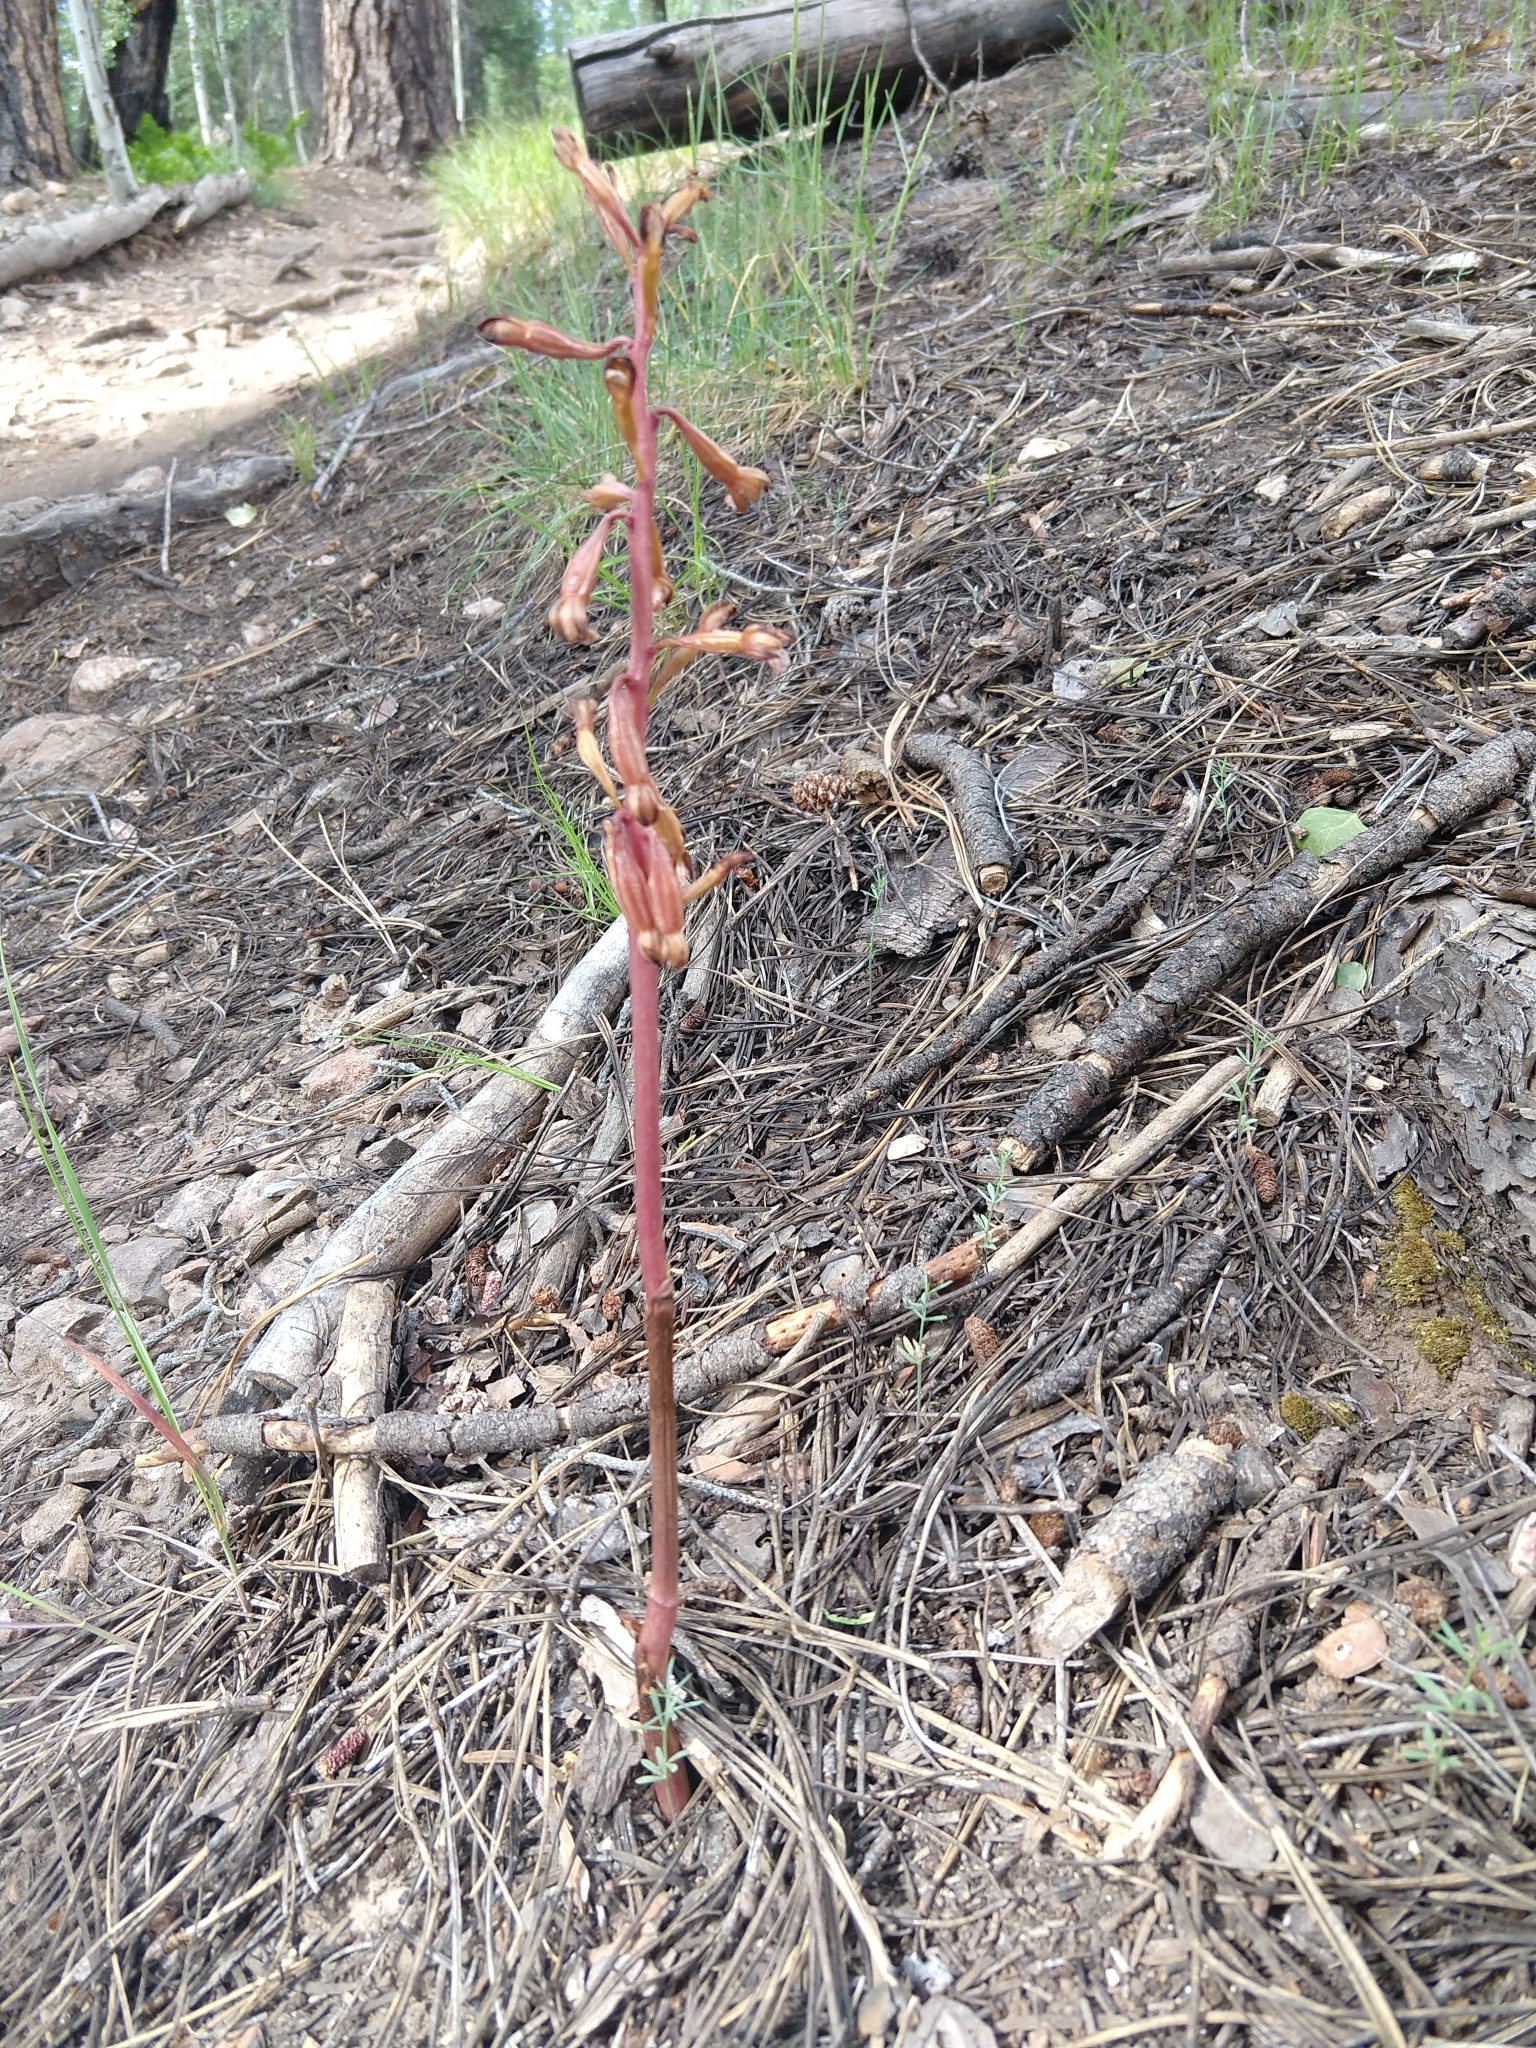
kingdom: Plantae
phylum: Tracheophyta
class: Liliopsida
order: Asparagales
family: Orchidaceae
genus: Corallorhiza
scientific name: Corallorhiza maculata
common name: Spotted coralroot
